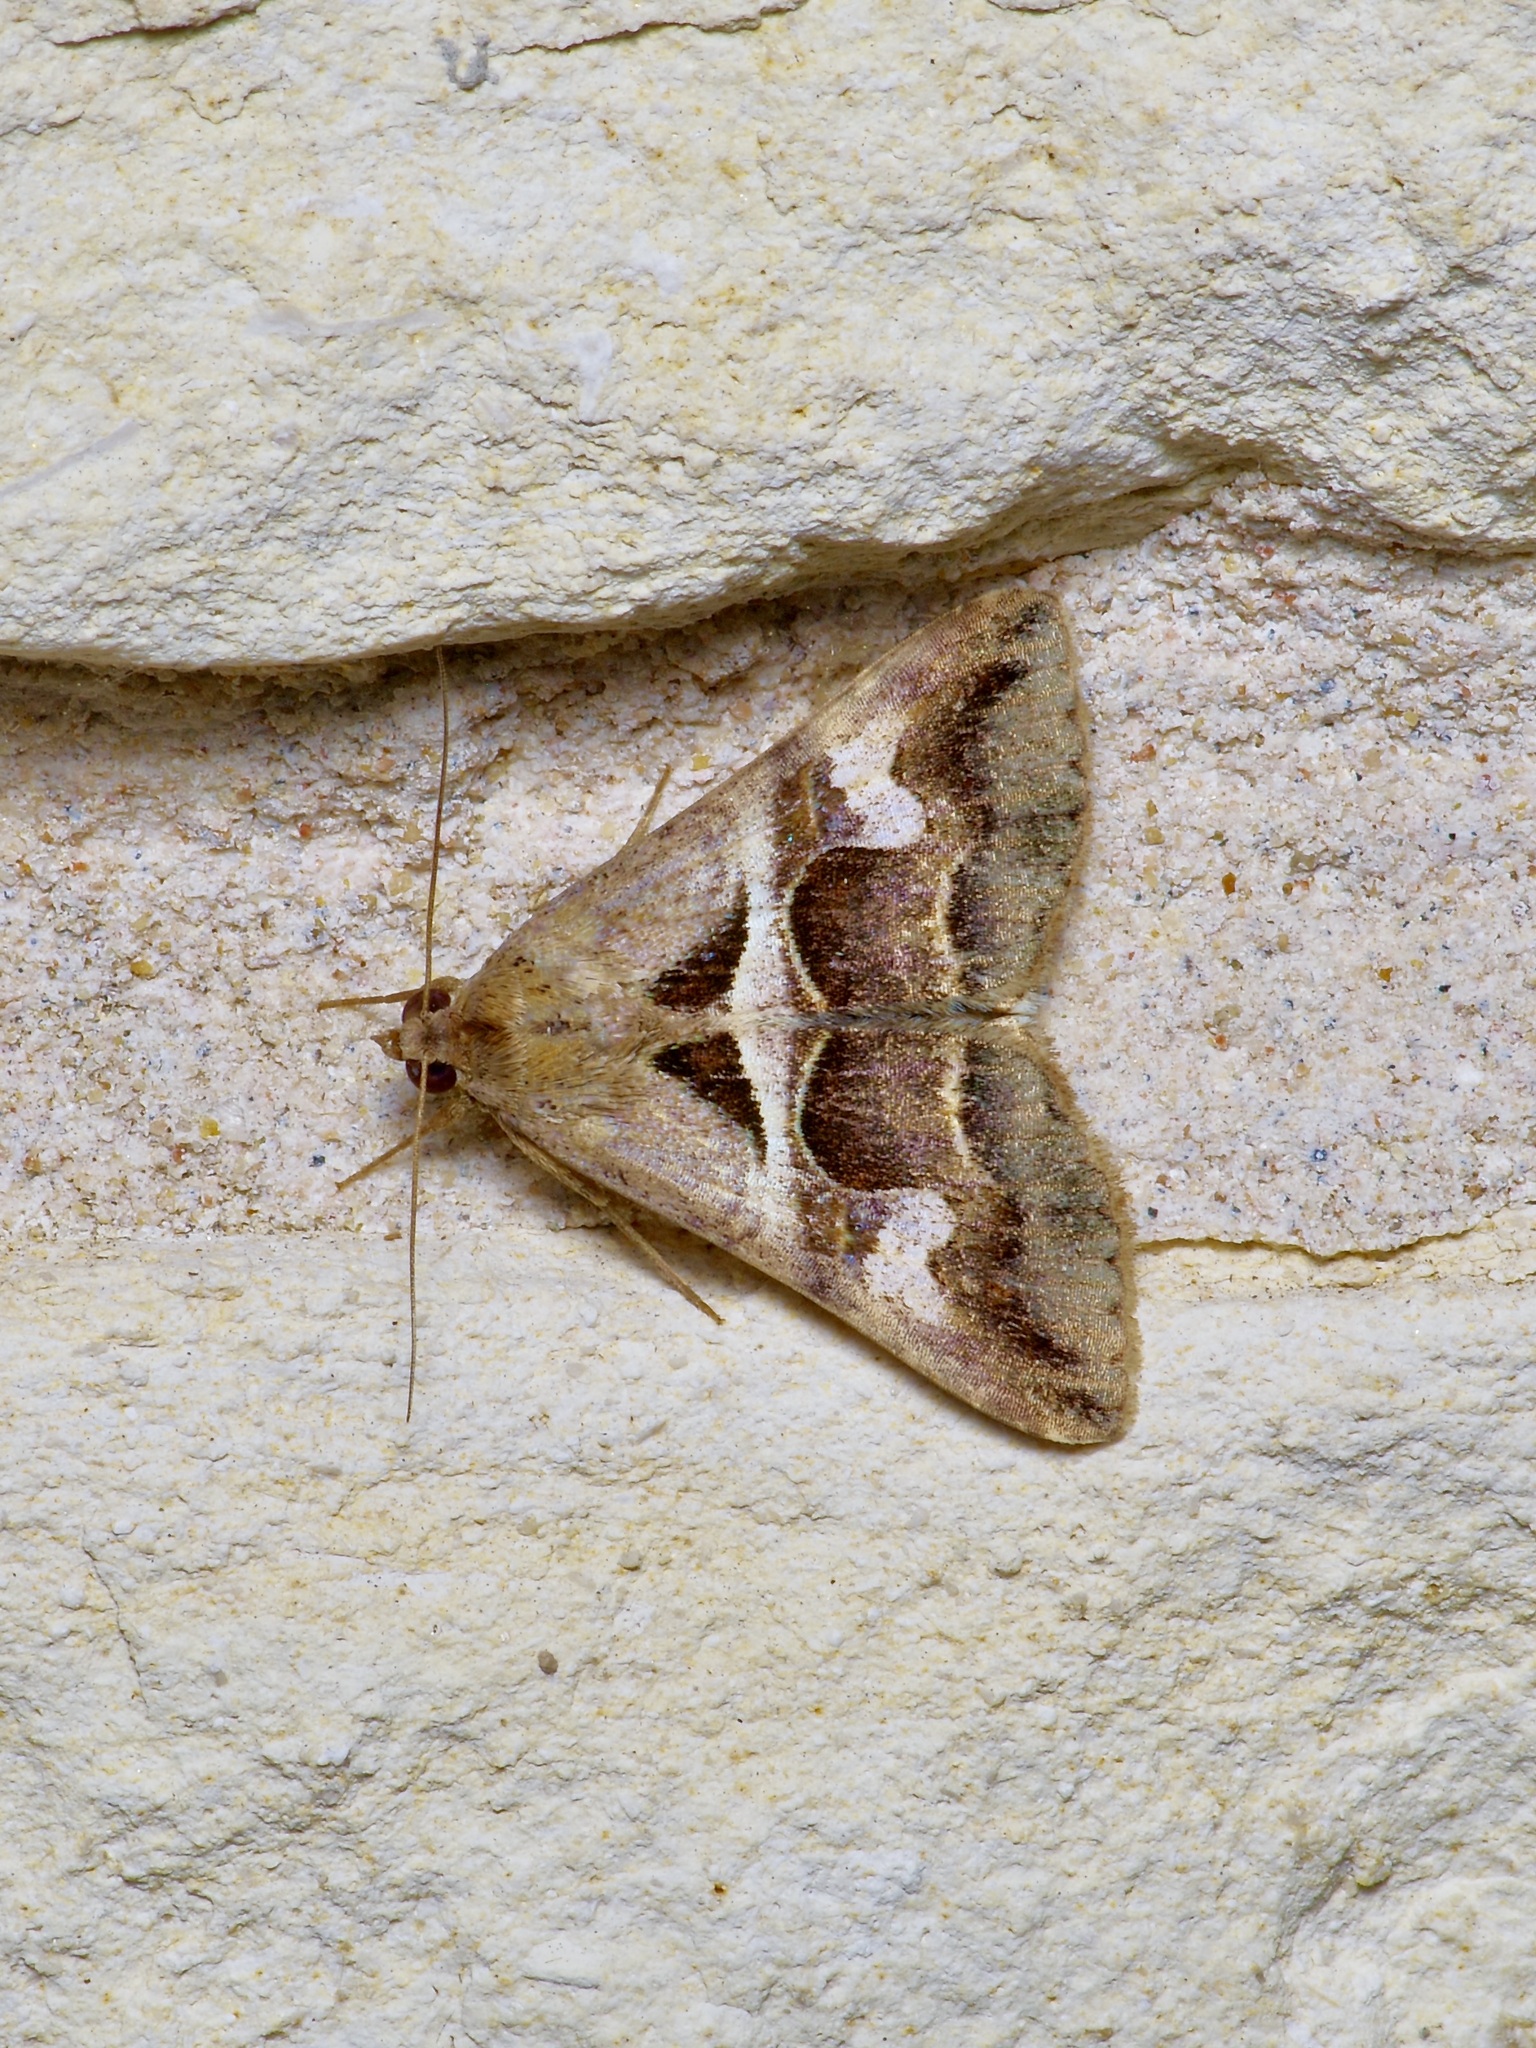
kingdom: Animalia
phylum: Arthropoda
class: Insecta
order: Lepidoptera
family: Erebidae
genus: Melipotis
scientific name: Melipotis cellaris
